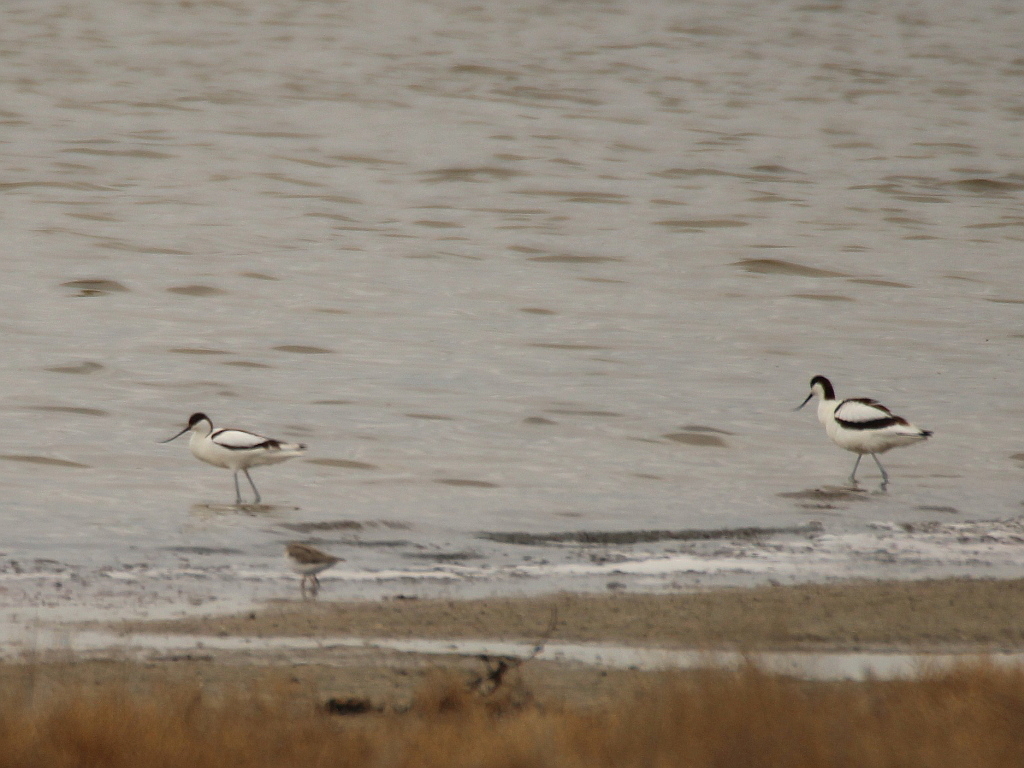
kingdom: Animalia
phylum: Chordata
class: Aves
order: Charadriiformes
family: Recurvirostridae
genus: Recurvirostra
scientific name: Recurvirostra avosetta
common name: Pied avocet
